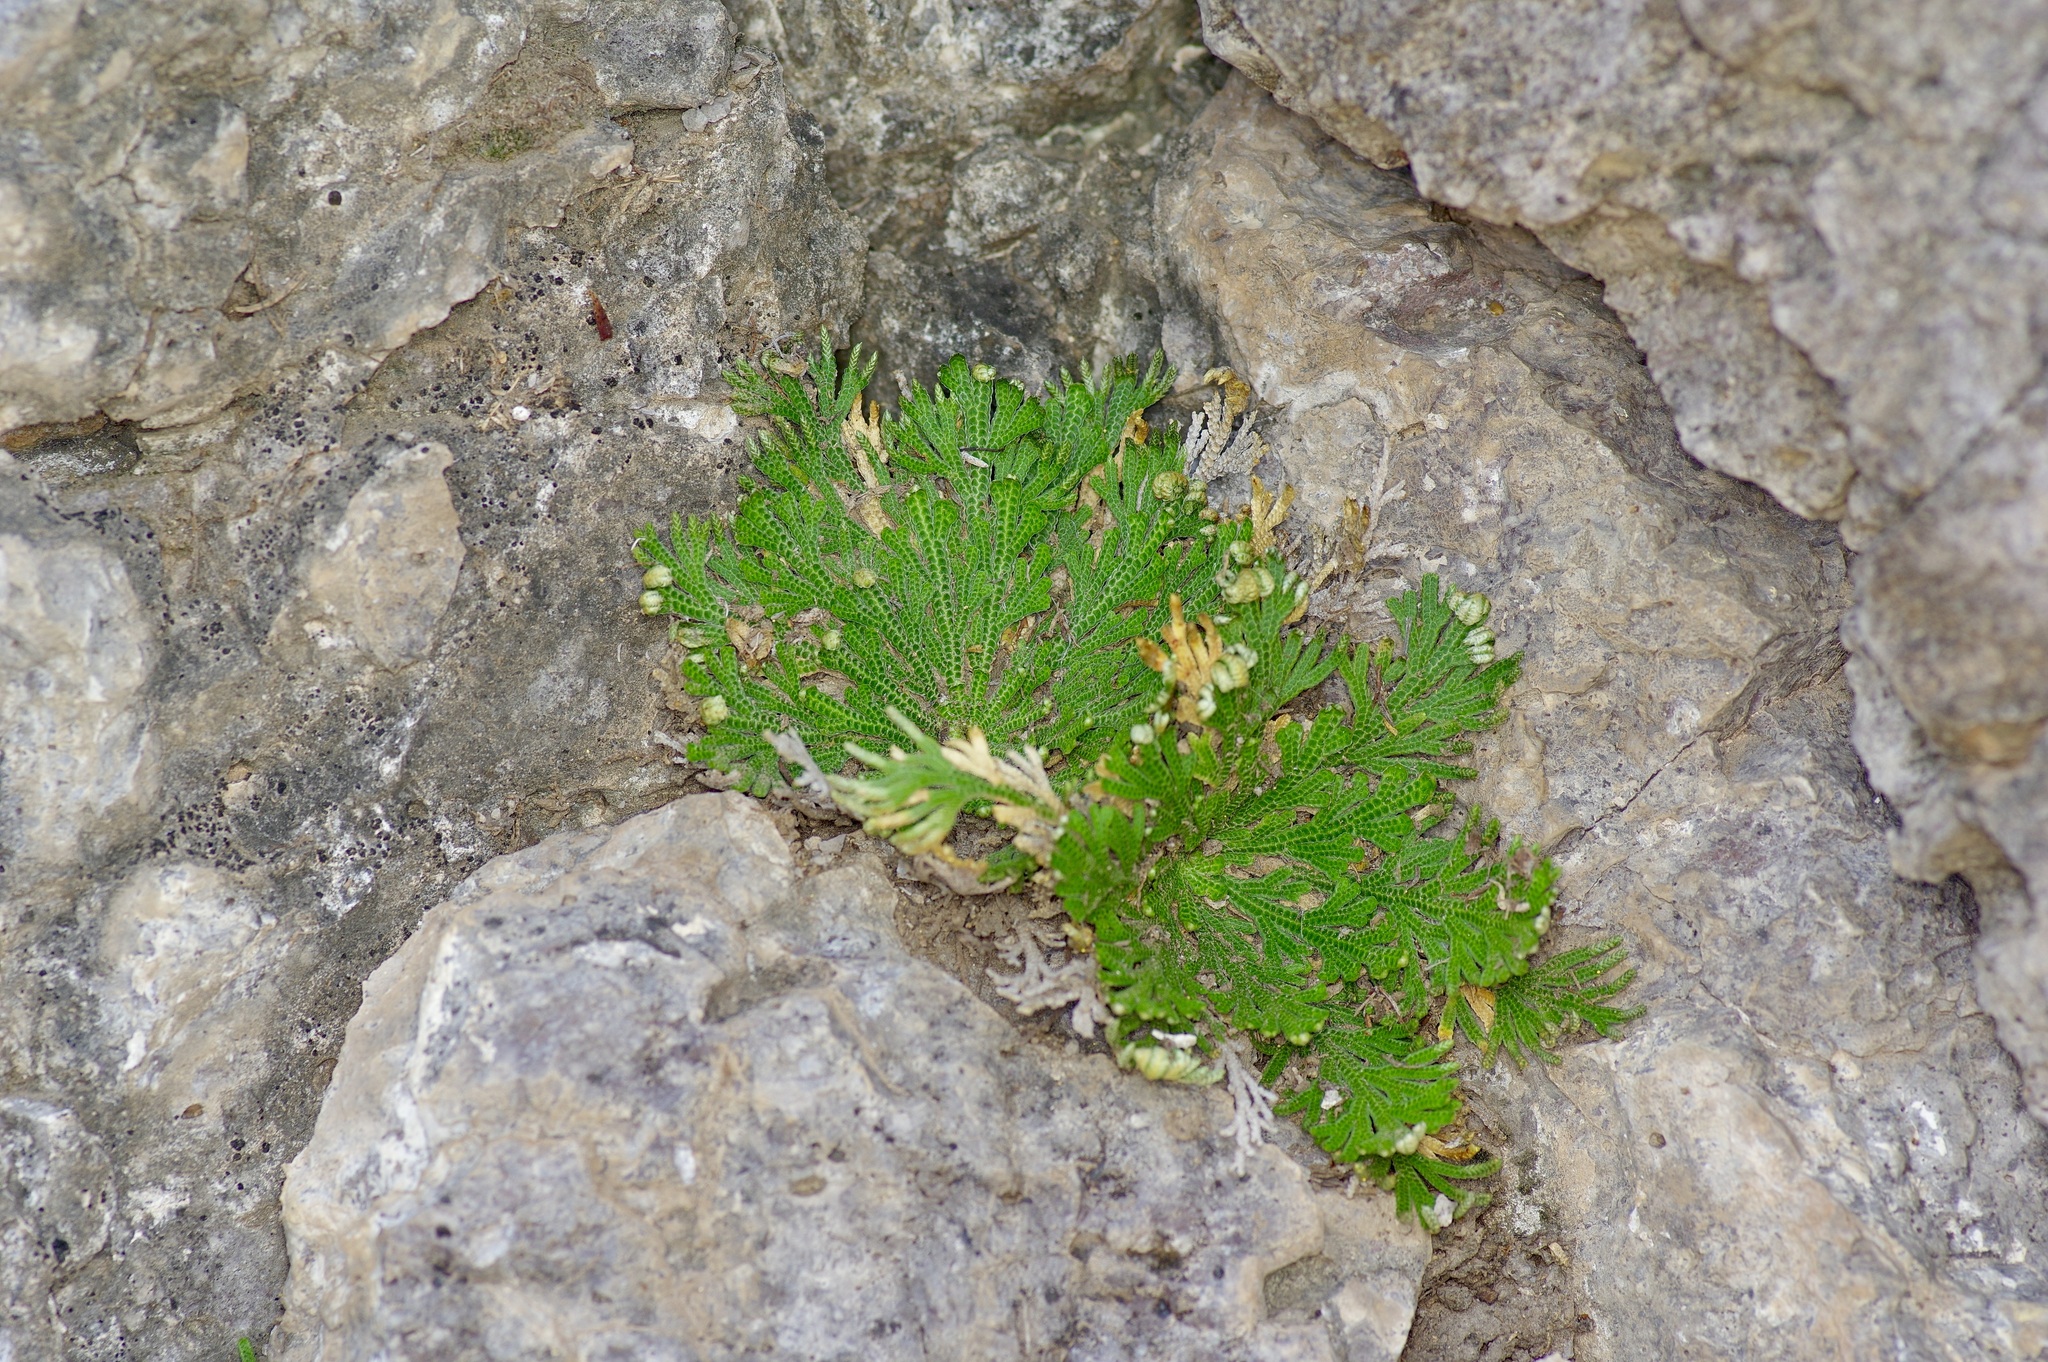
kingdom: Plantae
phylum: Tracheophyta
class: Lycopodiopsida
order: Selaginellales
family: Selaginellaceae
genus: Selaginella
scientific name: Selaginella lepidophylla
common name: Rose-of-jericho
